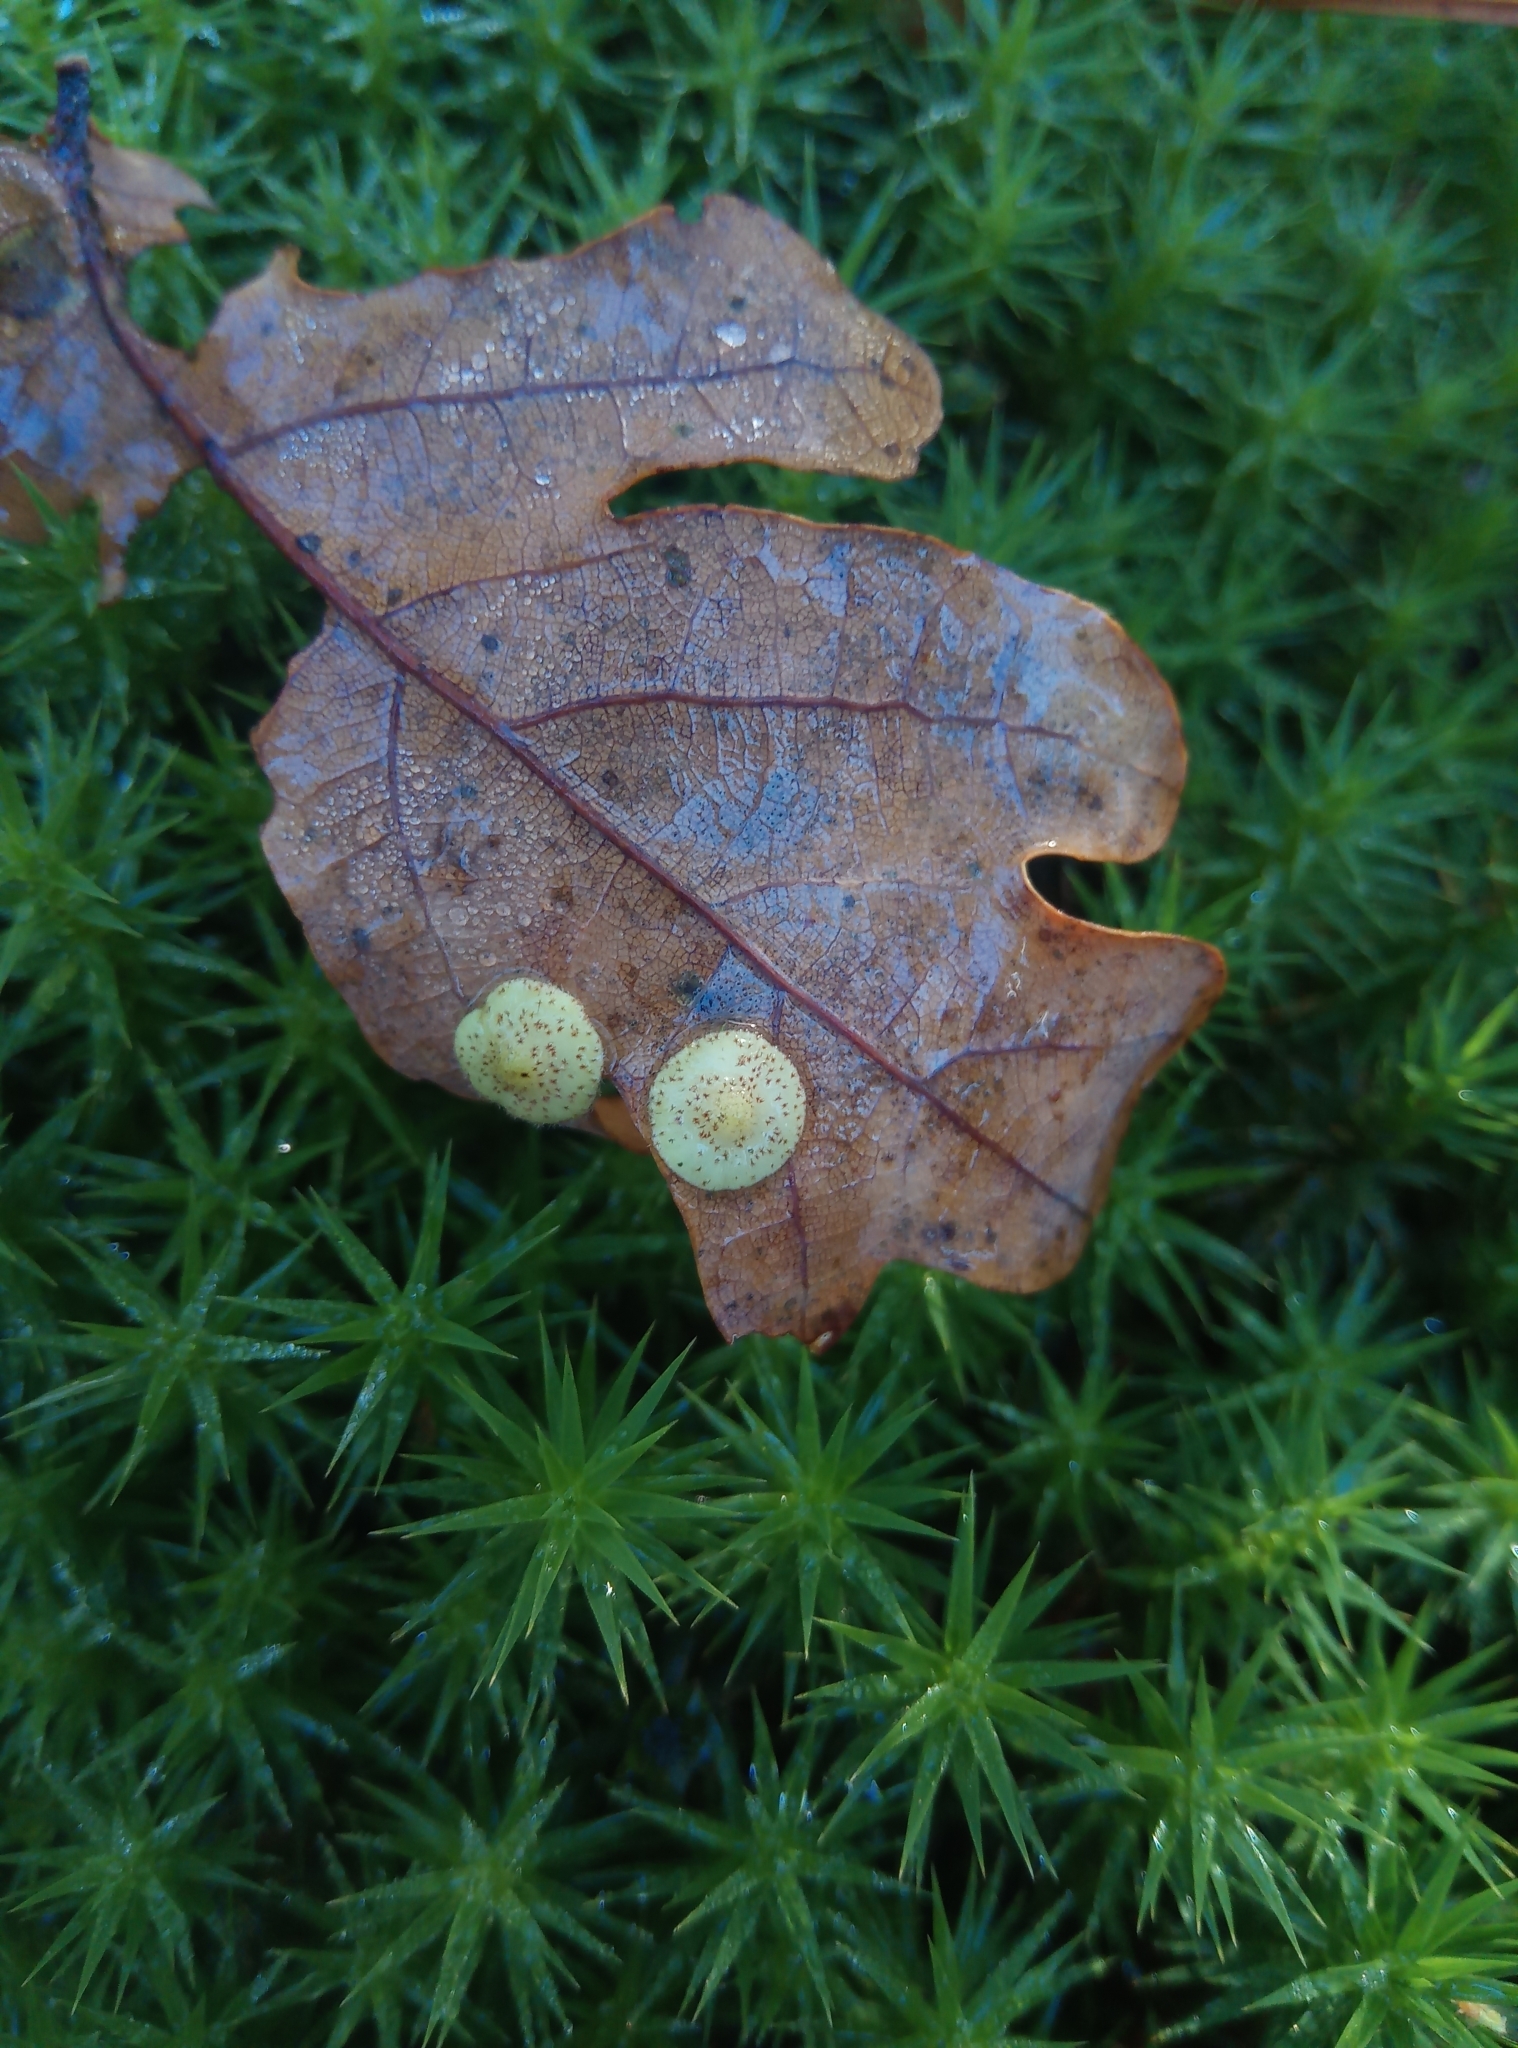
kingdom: Animalia
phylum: Arthropoda
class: Insecta
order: Hymenoptera
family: Cynipidae
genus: Neuroterus
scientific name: Neuroterus quercusbaccarum
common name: Common spangle gall
